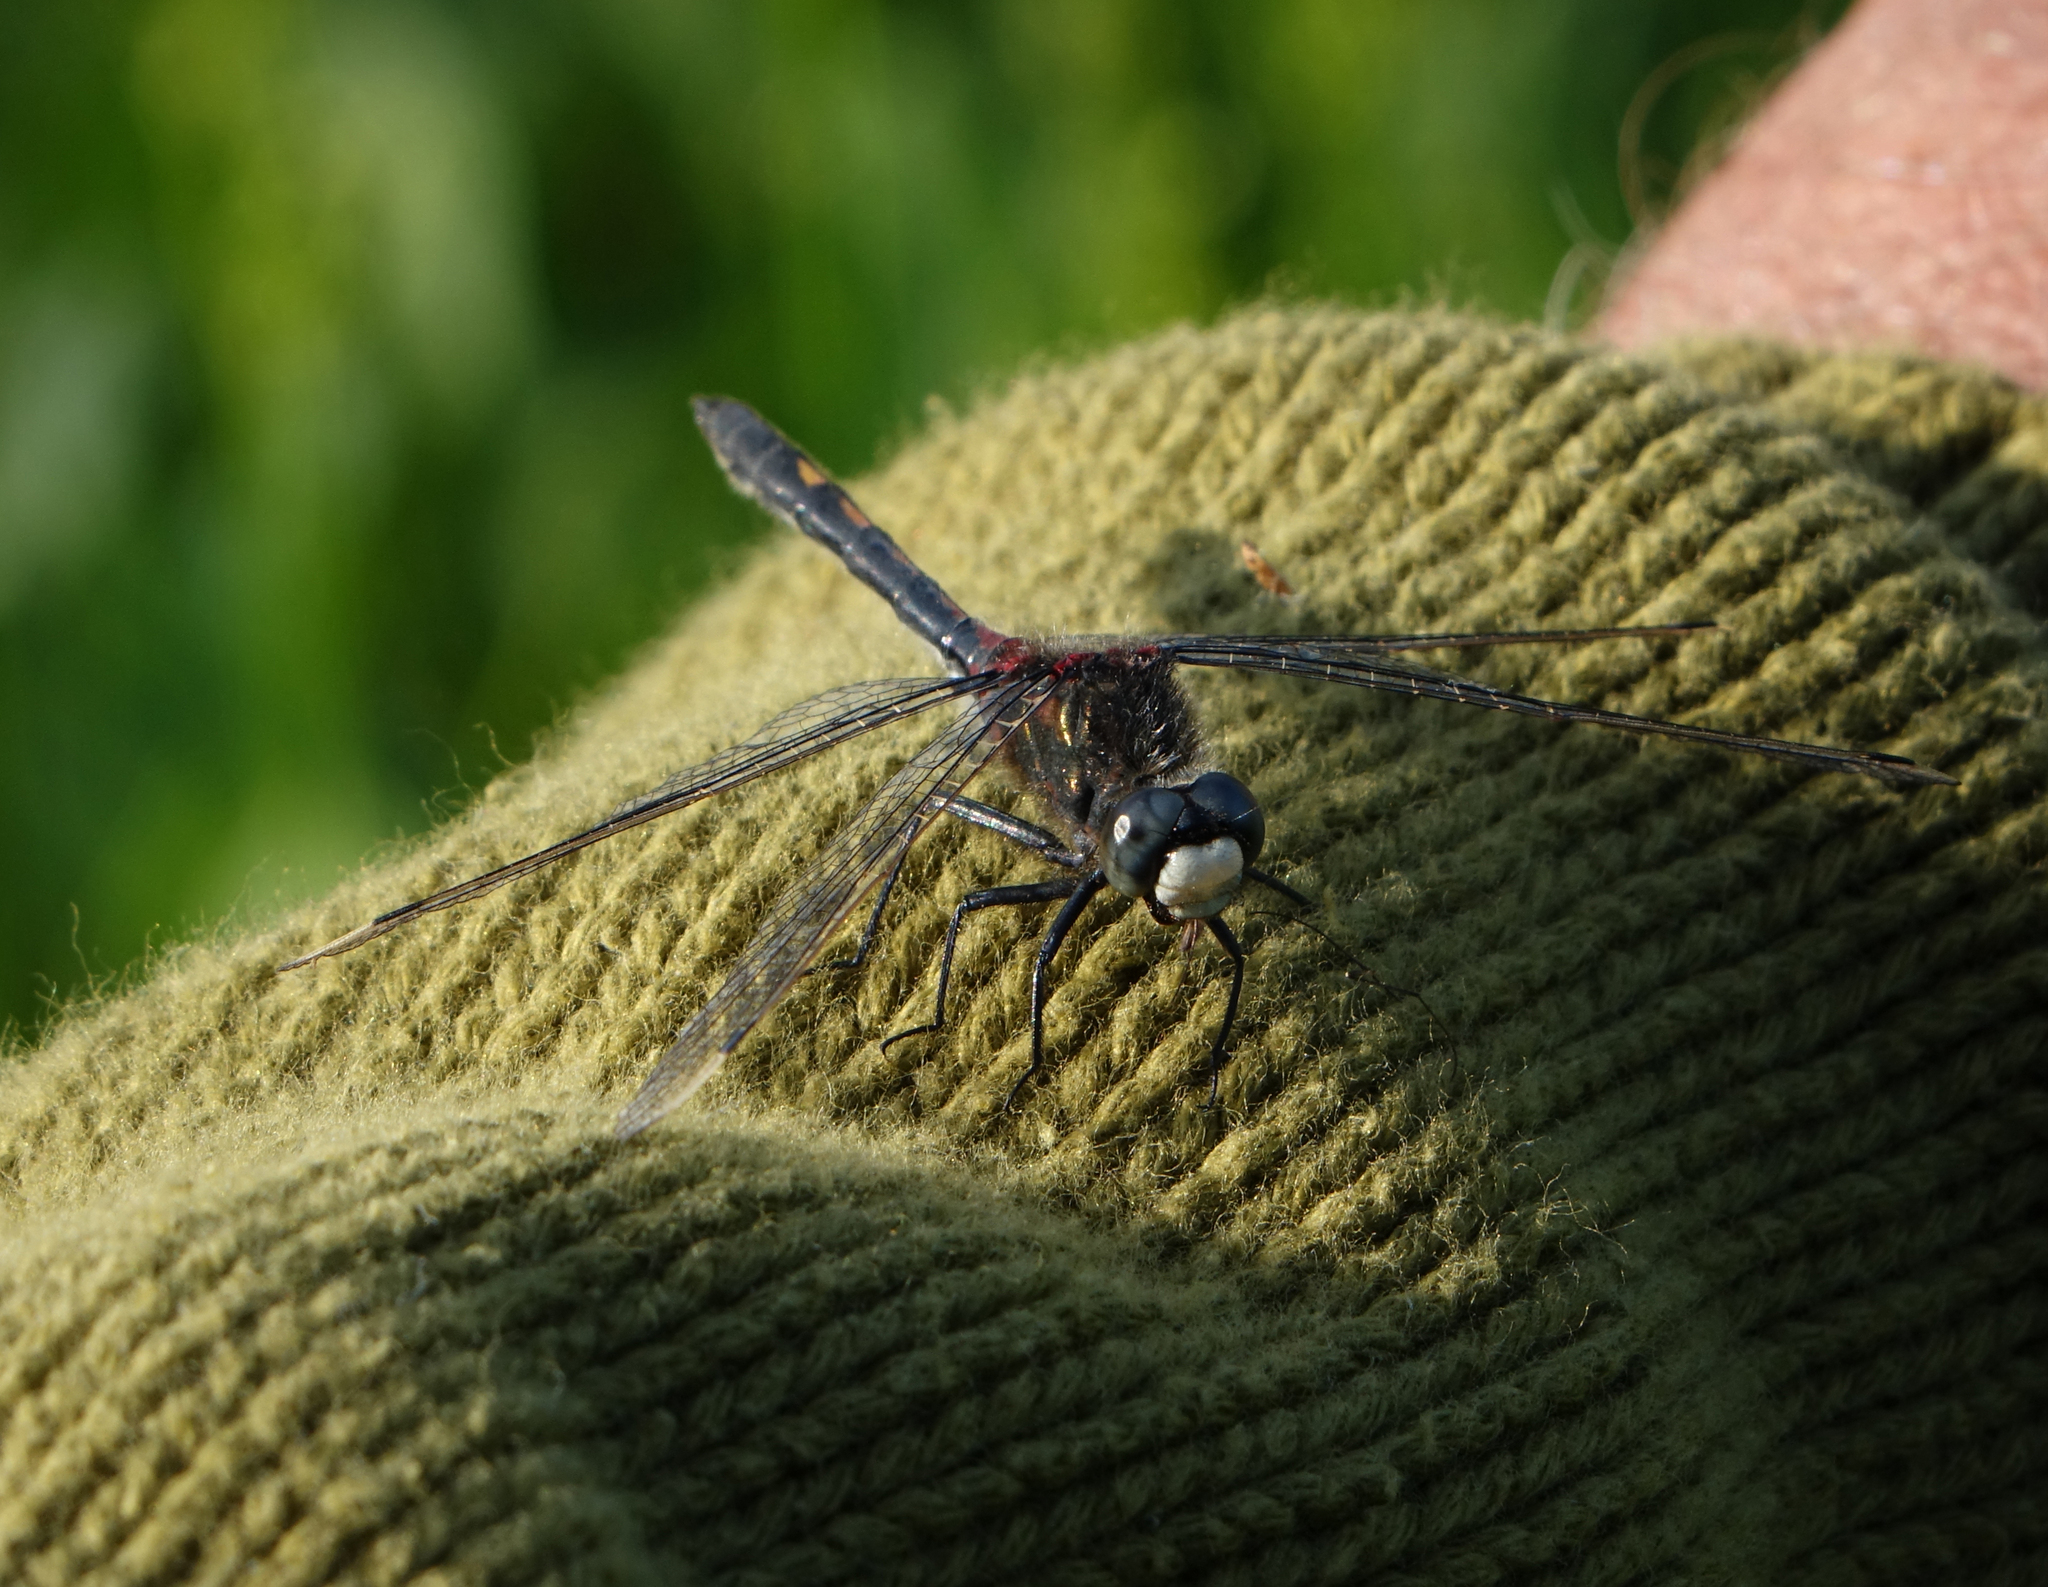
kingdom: Animalia
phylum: Arthropoda
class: Insecta
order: Odonata
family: Libellulidae
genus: Leucorrhinia
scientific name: Leucorrhinia intermedia
